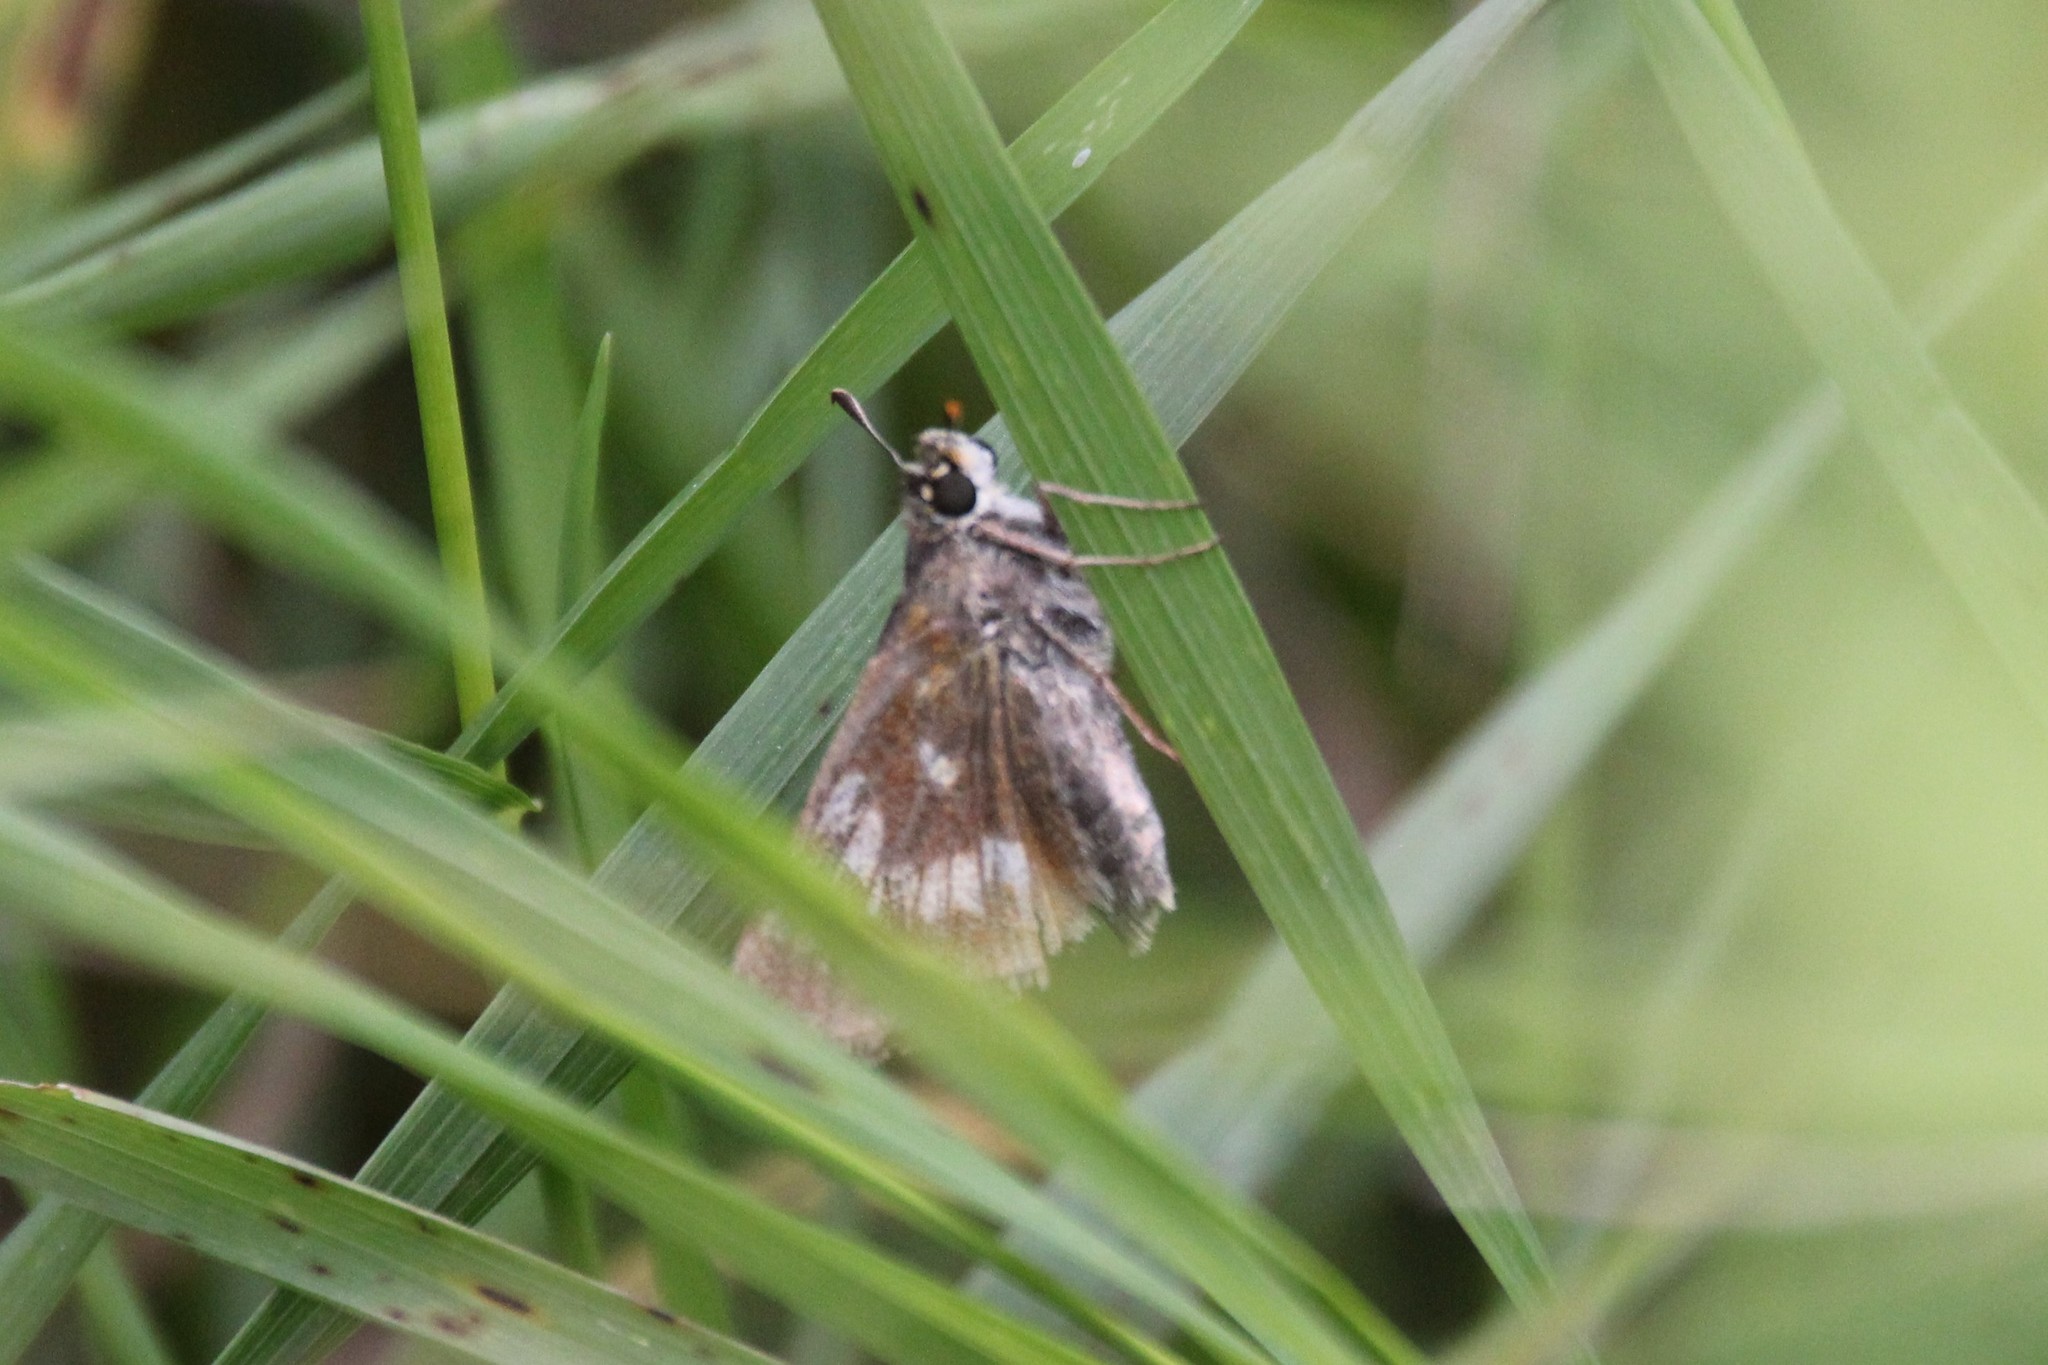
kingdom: Animalia
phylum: Arthropoda
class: Insecta
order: Lepidoptera
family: Hesperiidae
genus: Polites
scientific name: Polites mystic
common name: Long dash
